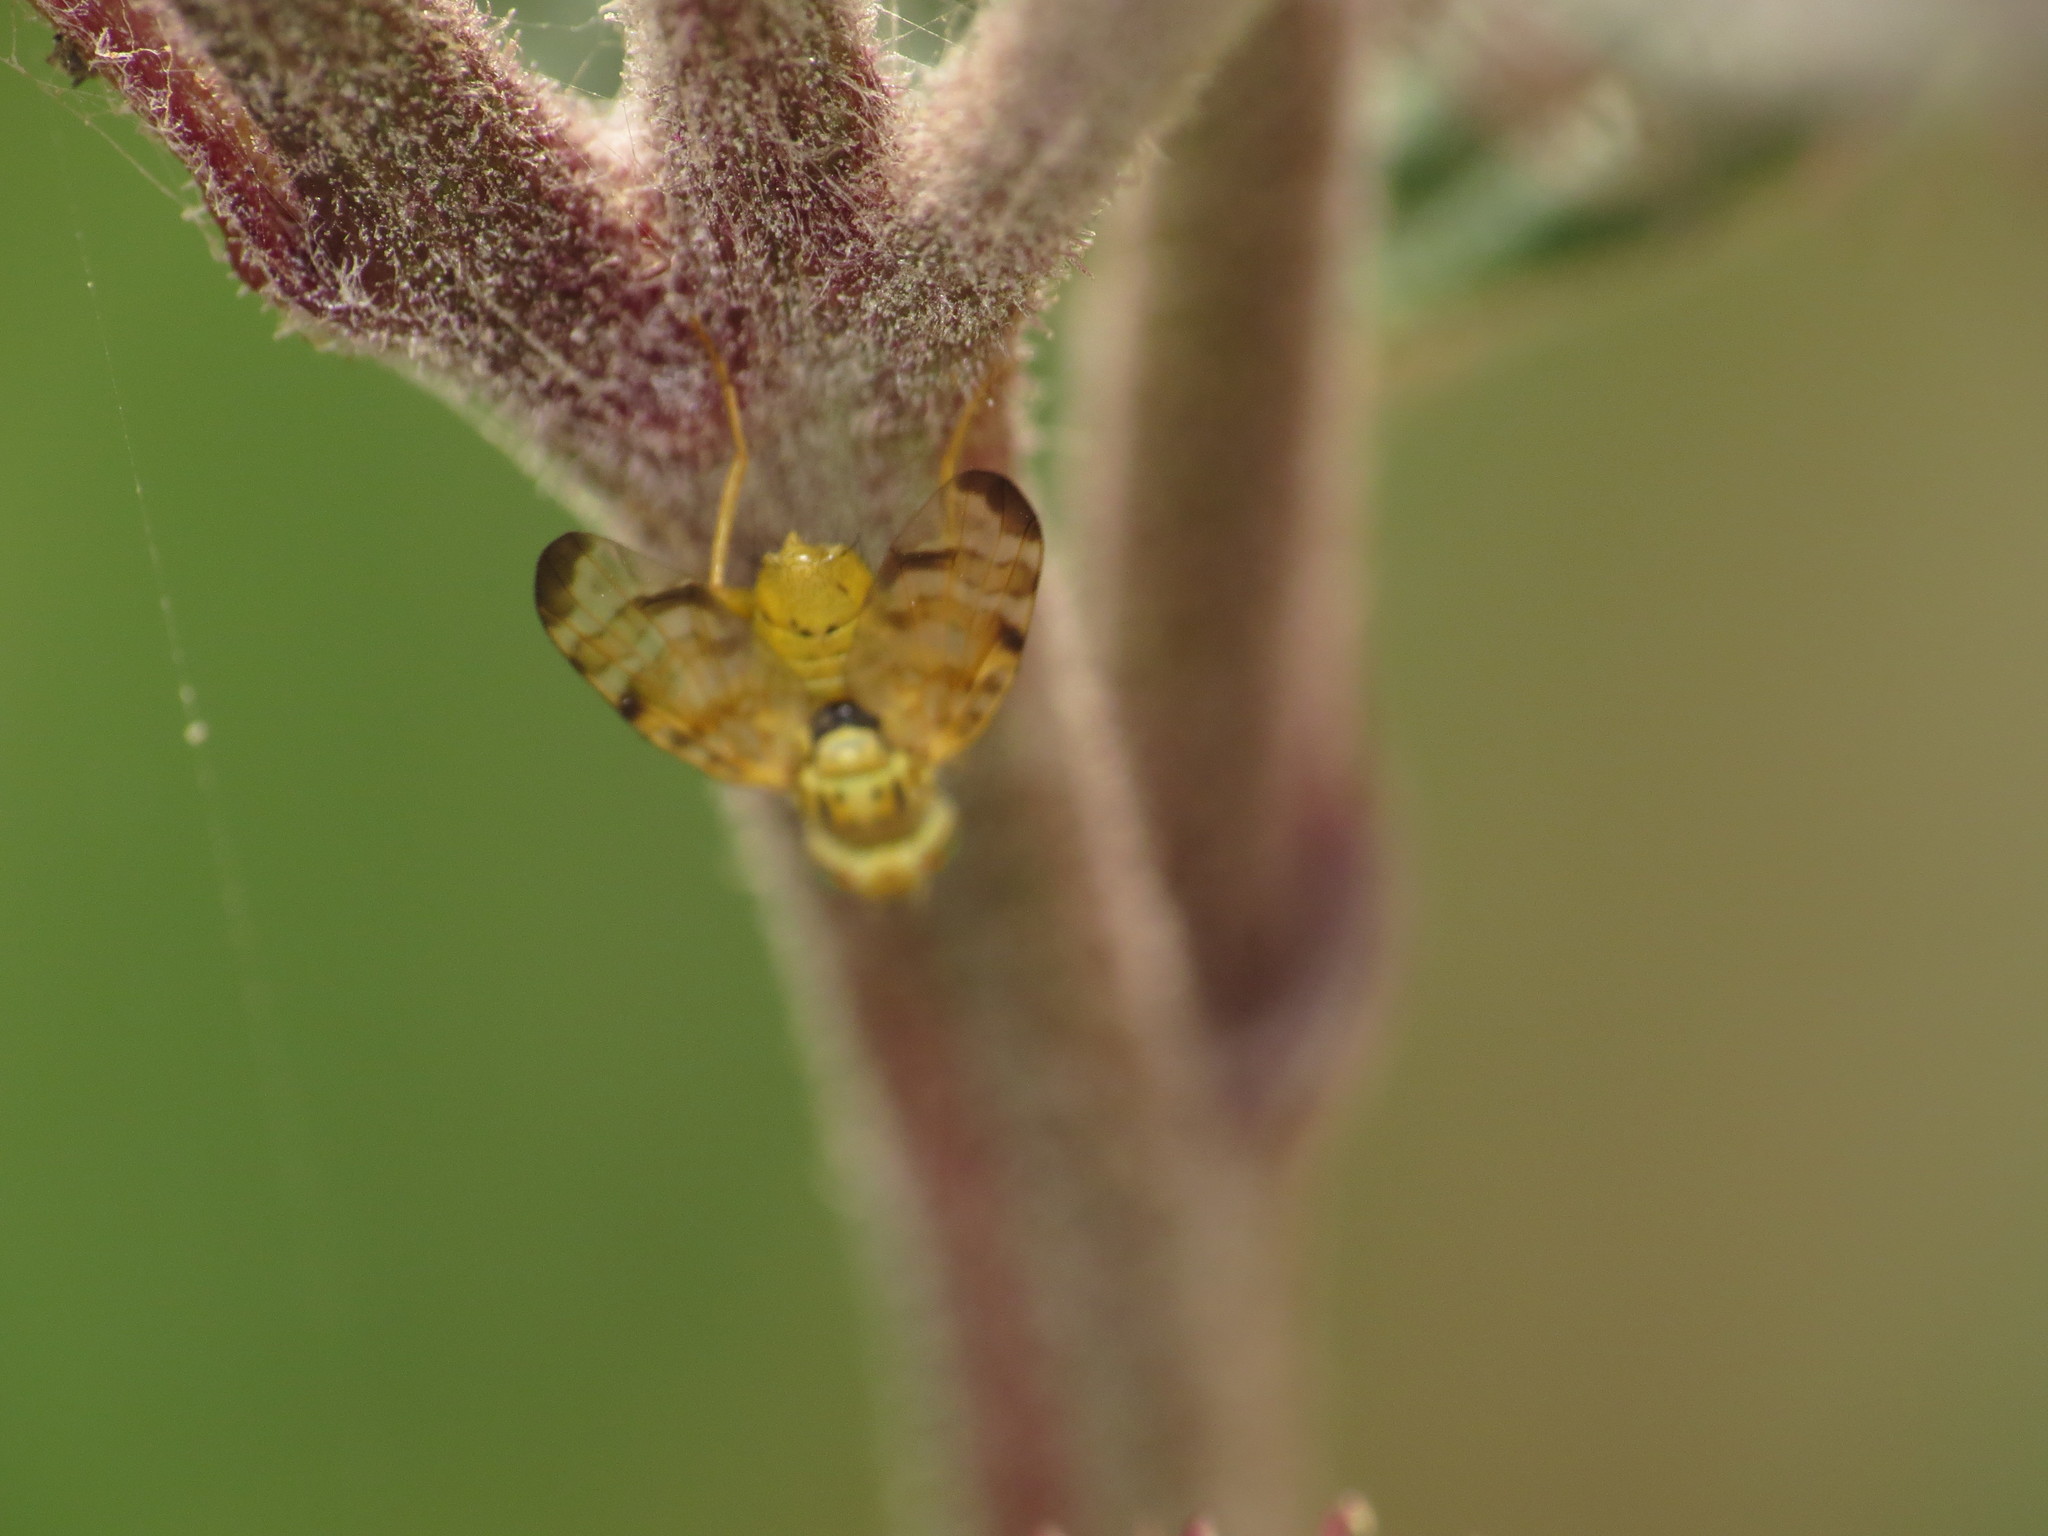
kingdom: Animalia
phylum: Arthropoda
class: Insecta
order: Diptera
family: Tephritidae
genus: Terellia
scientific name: Terellia tussilaginis
